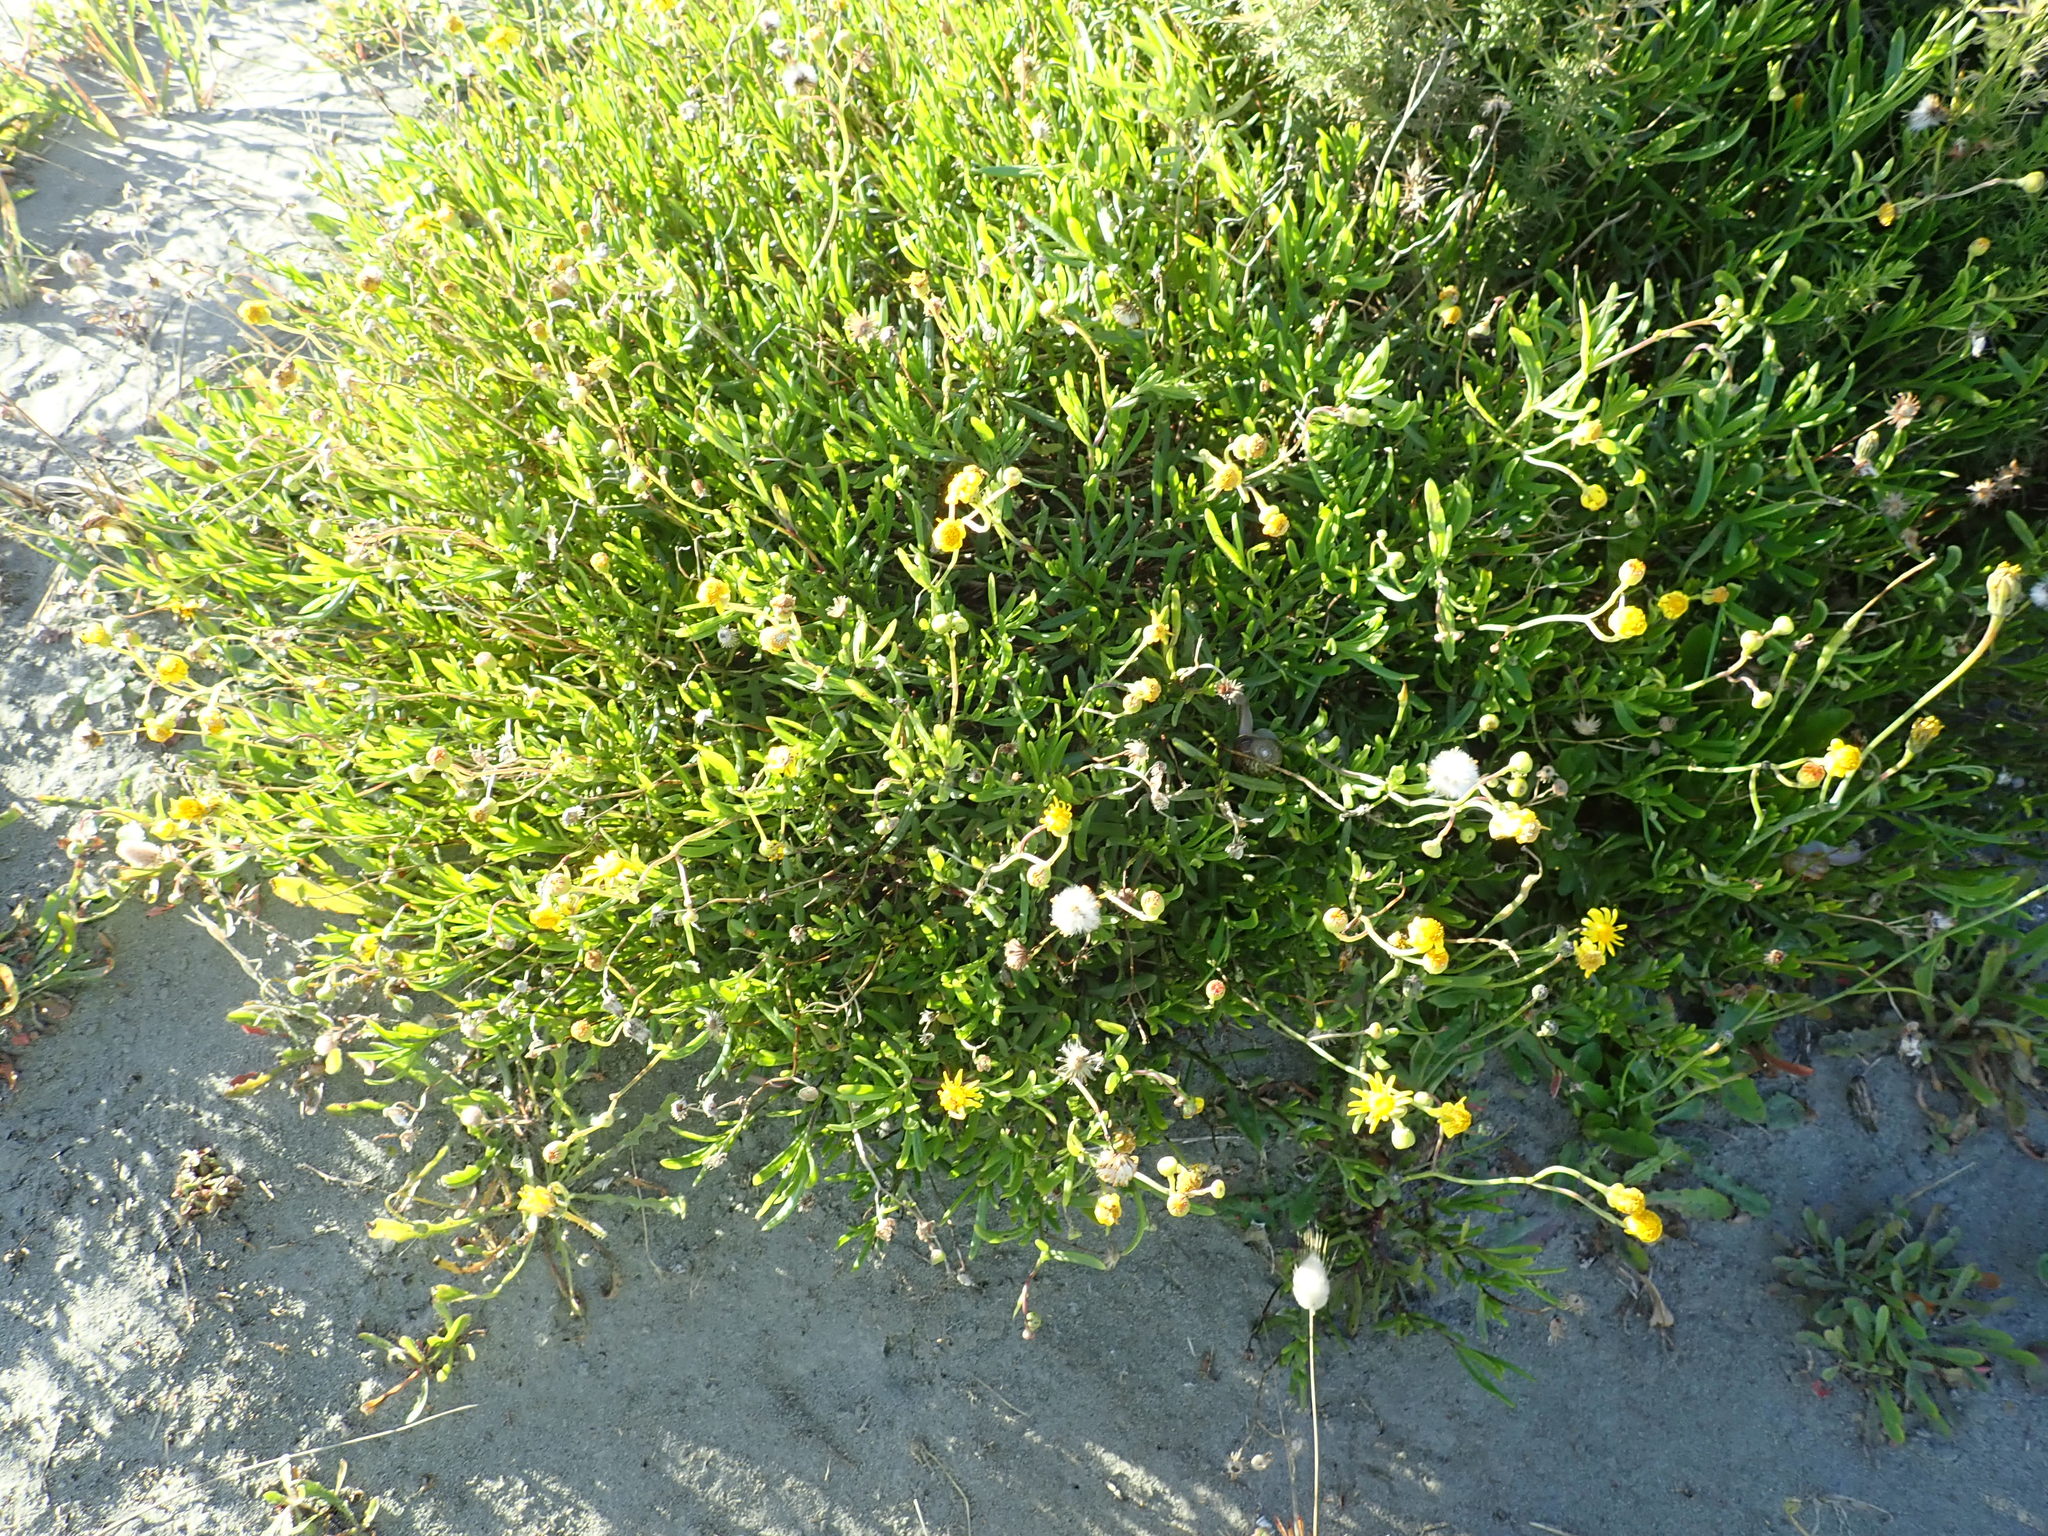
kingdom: Plantae
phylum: Tracheophyta
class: Magnoliopsida
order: Asterales
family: Asteraceae
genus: Senecio
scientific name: Senecio skirrhodon
